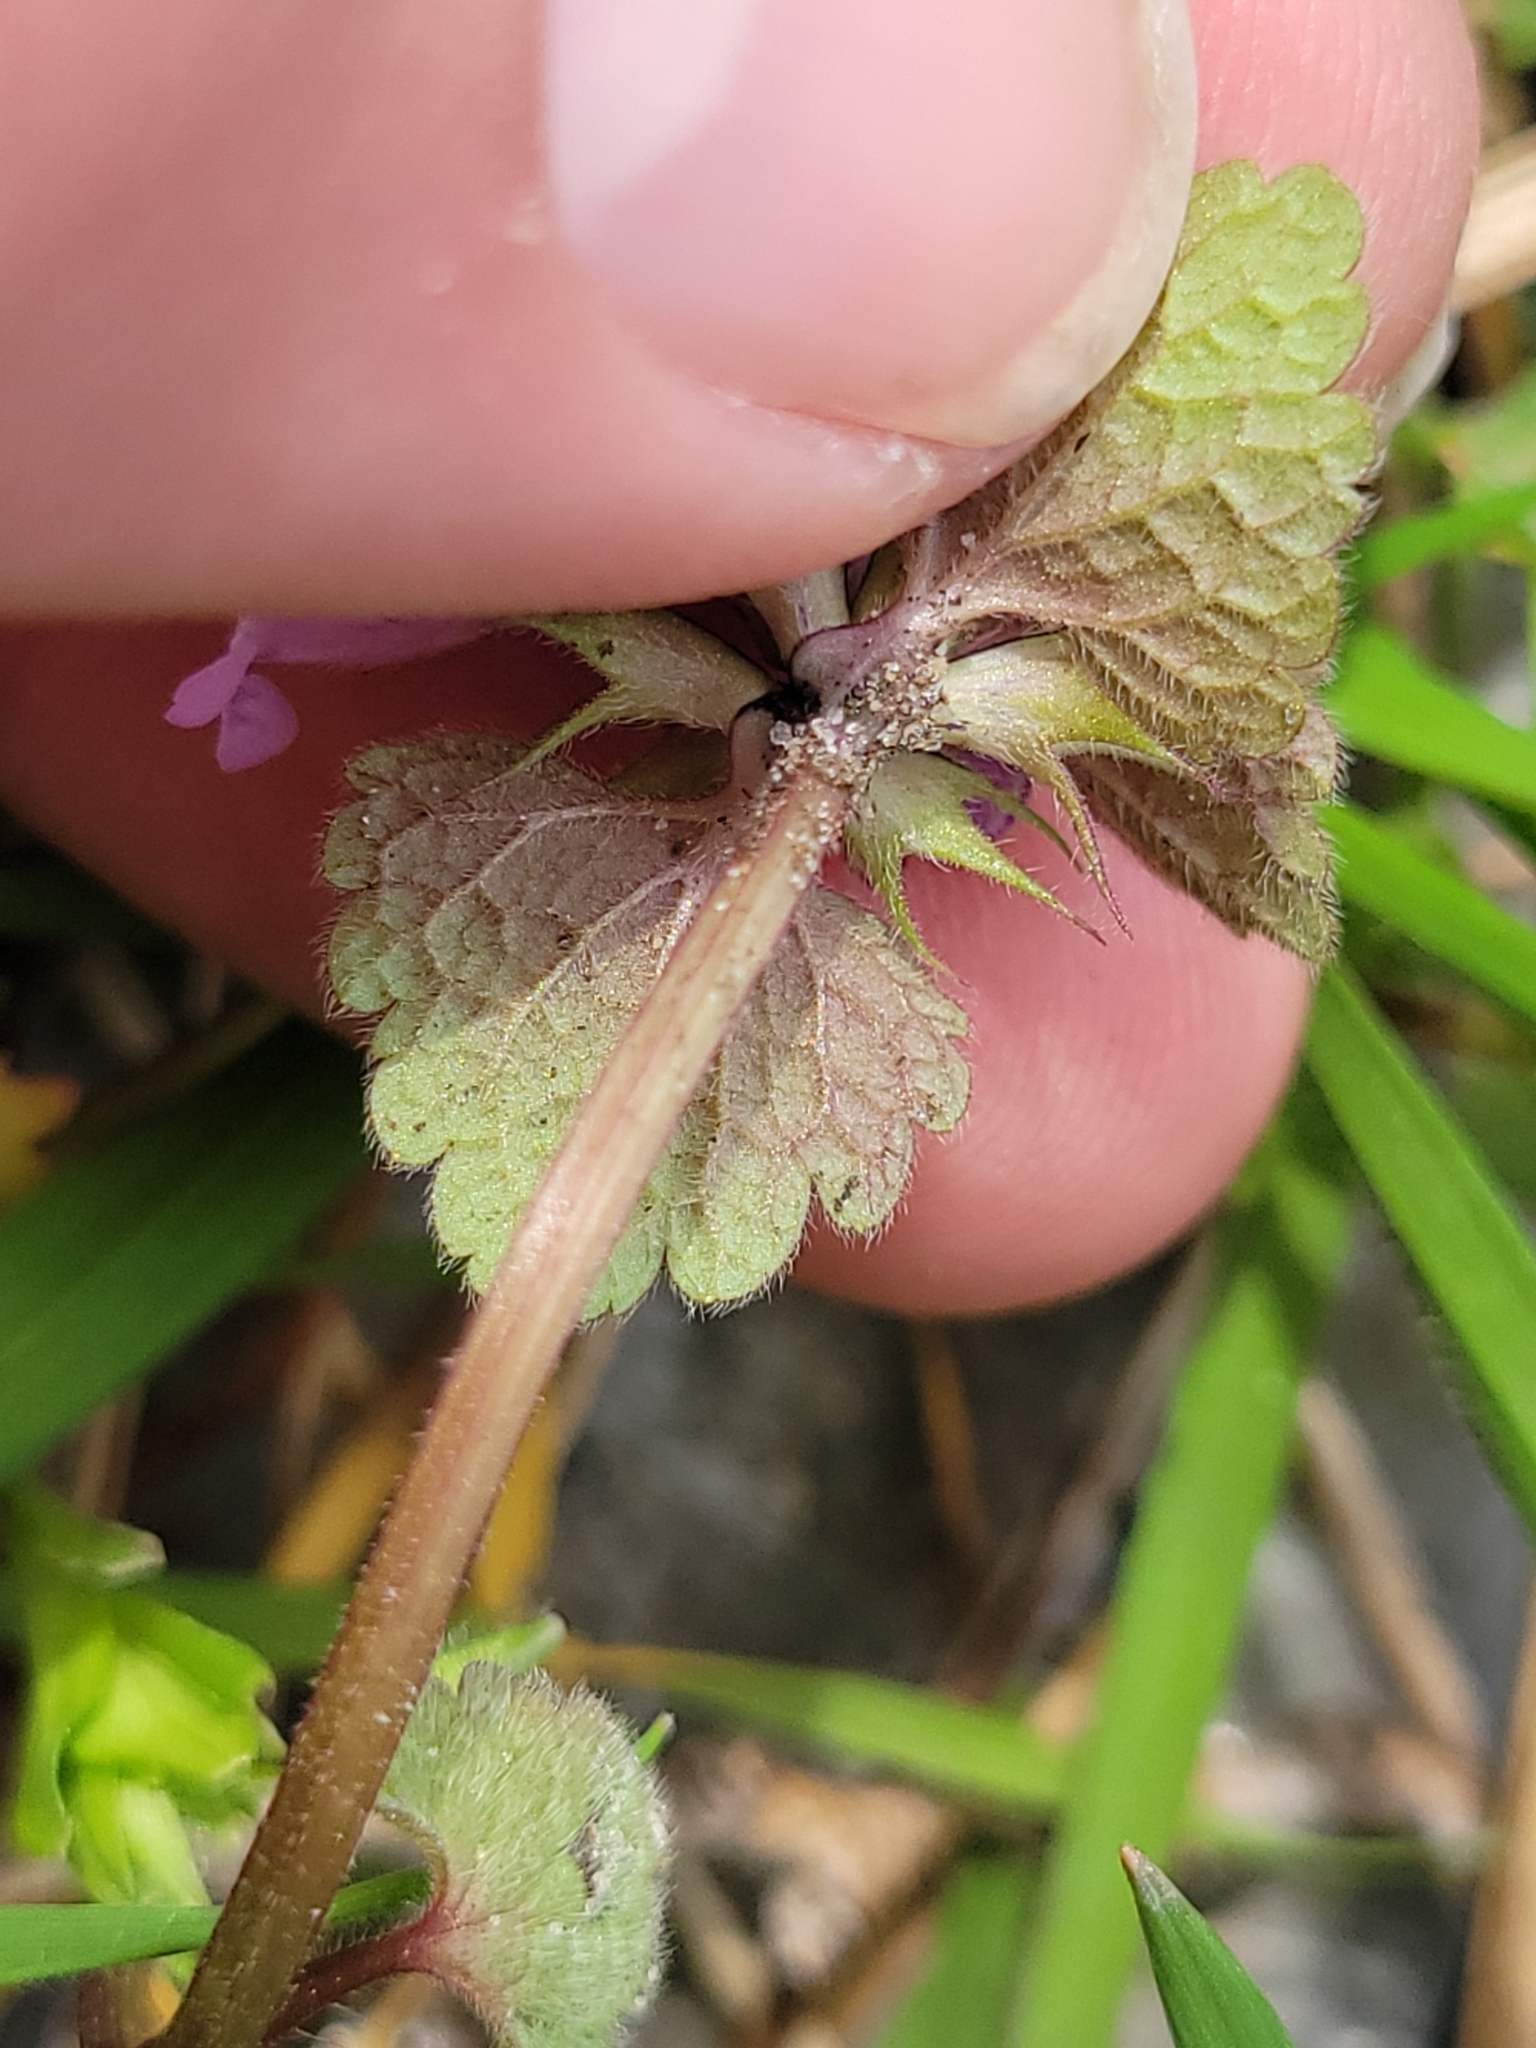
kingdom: Plantae
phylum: Tracheophyta
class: Magnoliopsida
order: Lamiales
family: Lamiaceae
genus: Lamium
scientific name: Lamium purpureum
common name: Red dead-nettle
